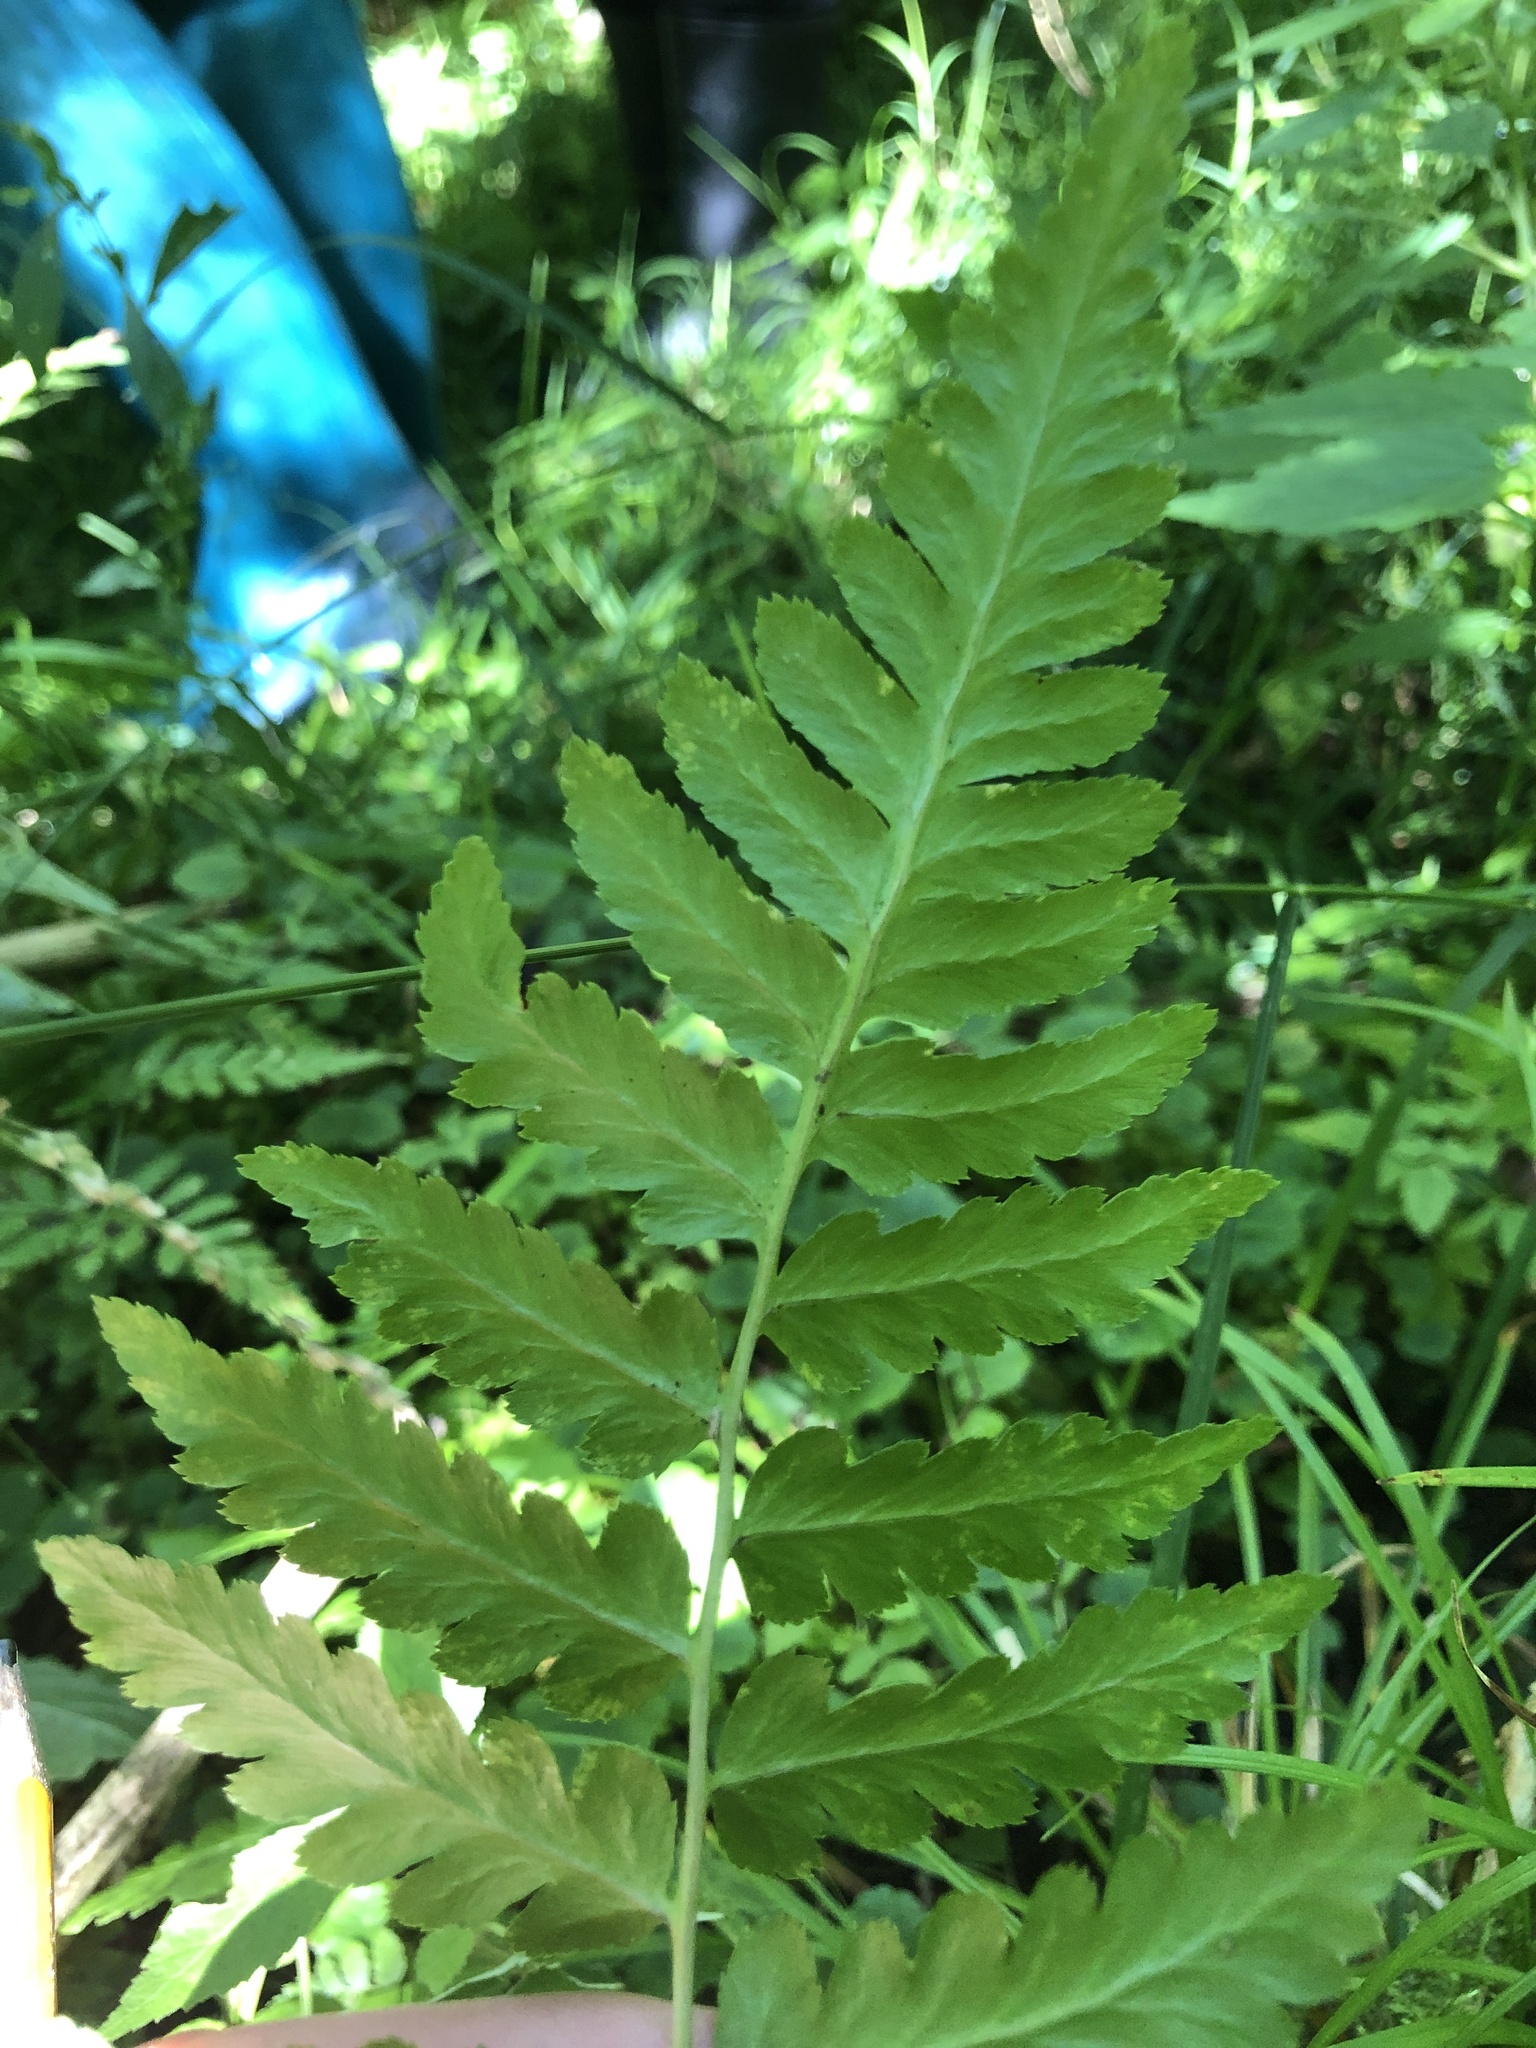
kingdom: Plantae
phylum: Tracheophyta
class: Polypodiopsida
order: Polypodiales
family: Dryopteridaceae
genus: Dryopteris
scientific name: Dryopteris cristata
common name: Crested wood fern
